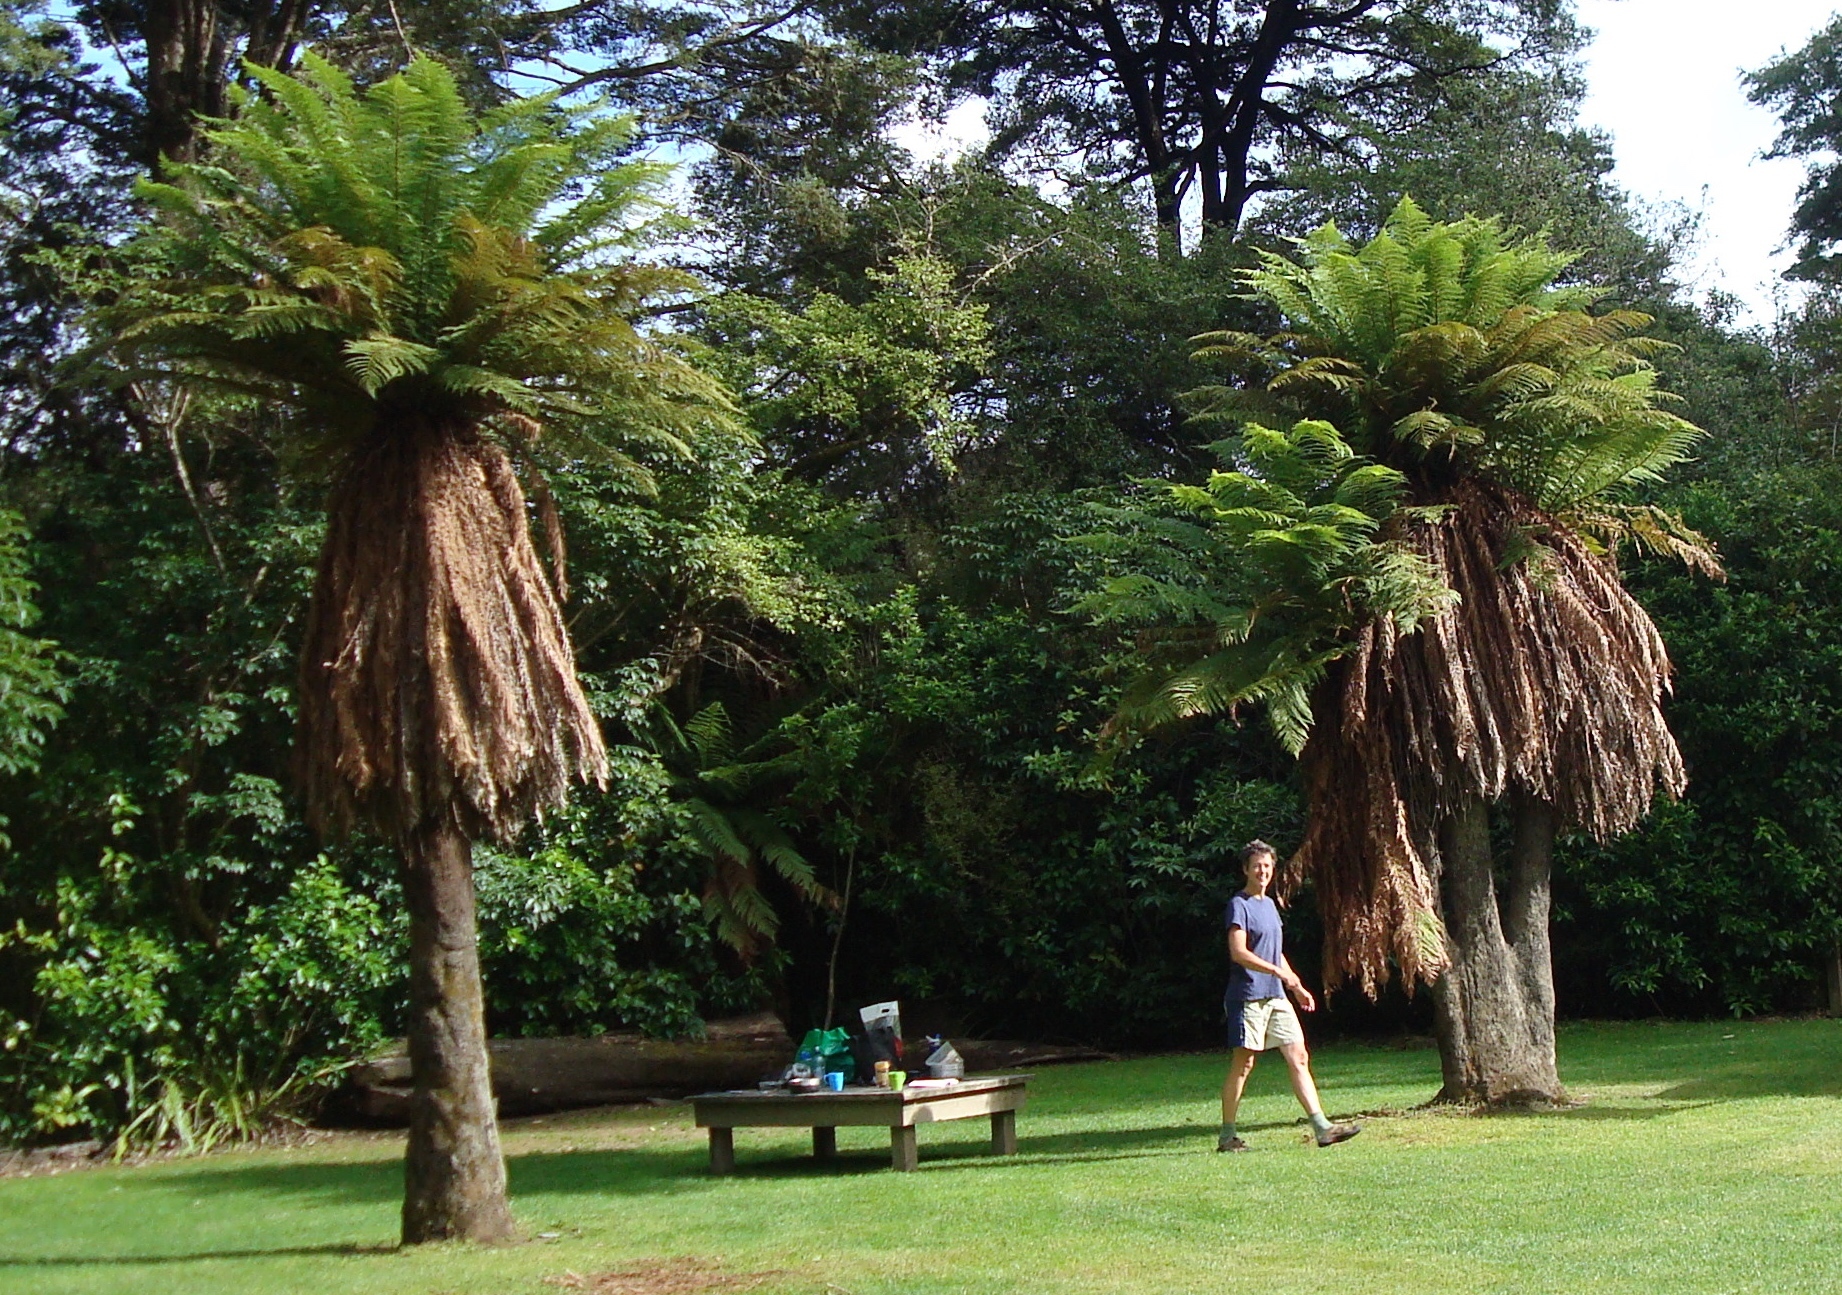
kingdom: Plantae
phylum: Tracheophyta
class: Polypodiopsida
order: Cyatheales
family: Dicksoniaceae
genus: Dicksonia
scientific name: Dicksonia fibrosa
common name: Golden tree fern
